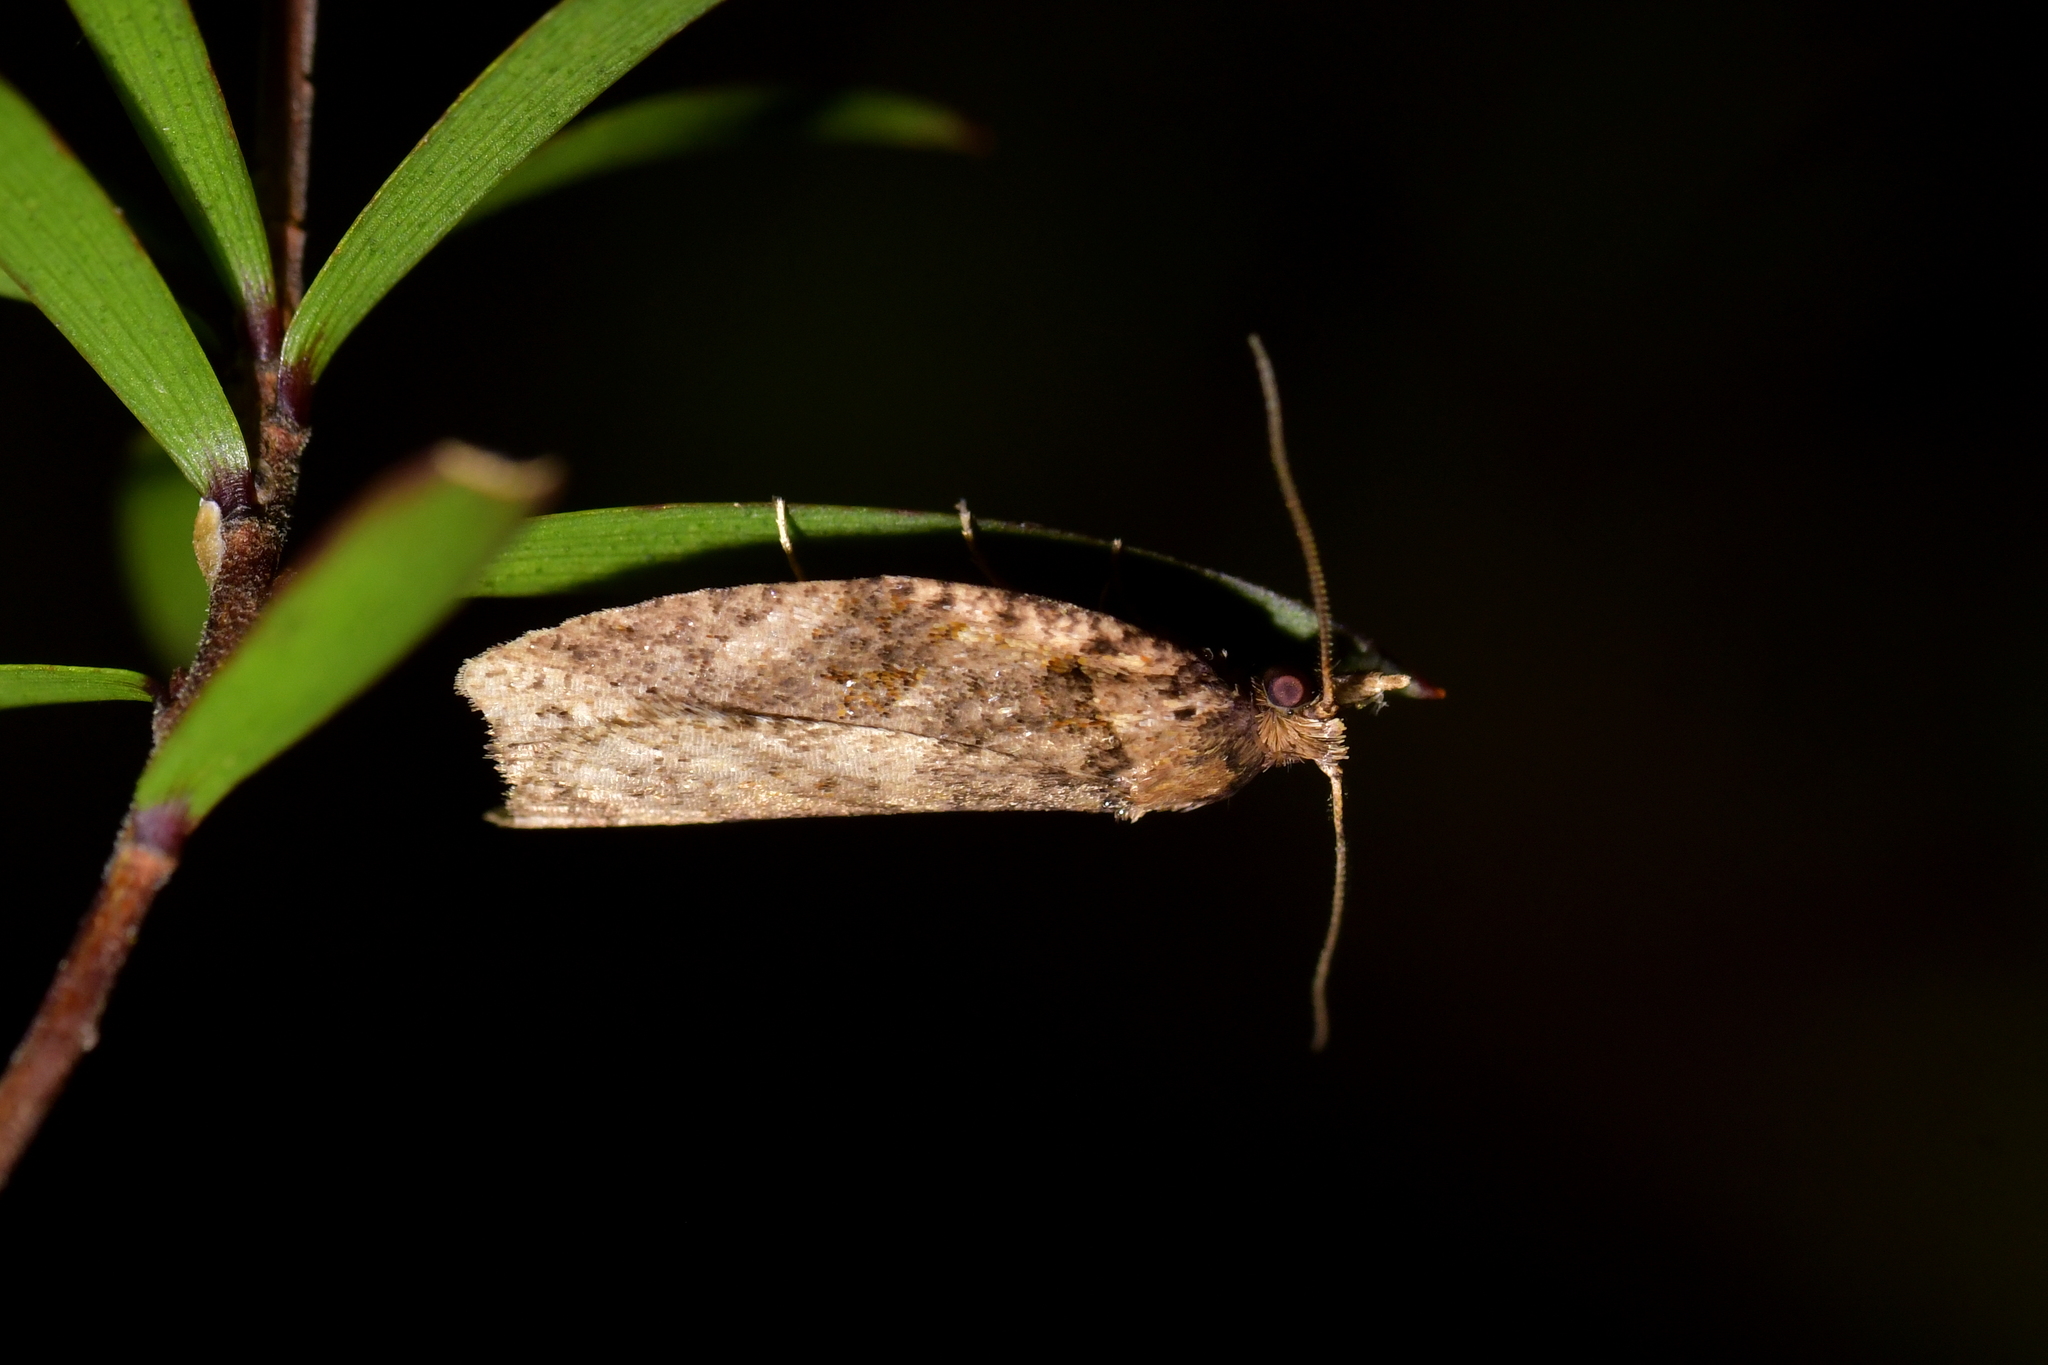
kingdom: Animalia
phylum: Arthropoda
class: Insecta
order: Lepidoptera
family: Tortricidae
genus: Ctenopseustis
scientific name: Ctenopseustis obliquana
